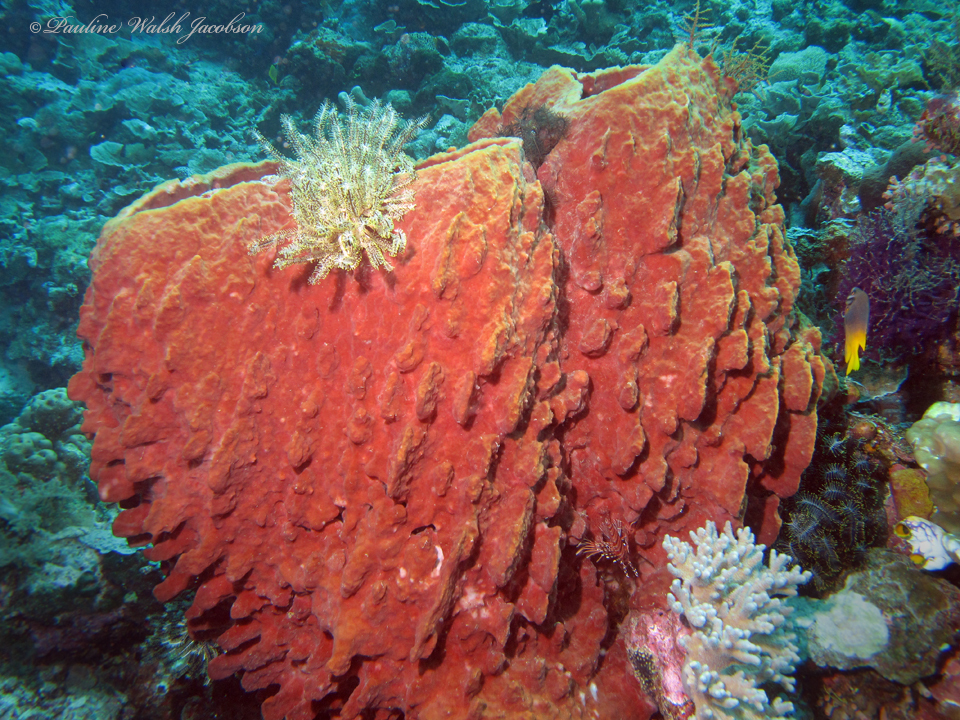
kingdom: Animalia
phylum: Porifera
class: Demospongiae
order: Haplosclerida
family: Petrosiidae
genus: Xestospongia
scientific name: Xestospongia testudinaria
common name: Barrel sponge
